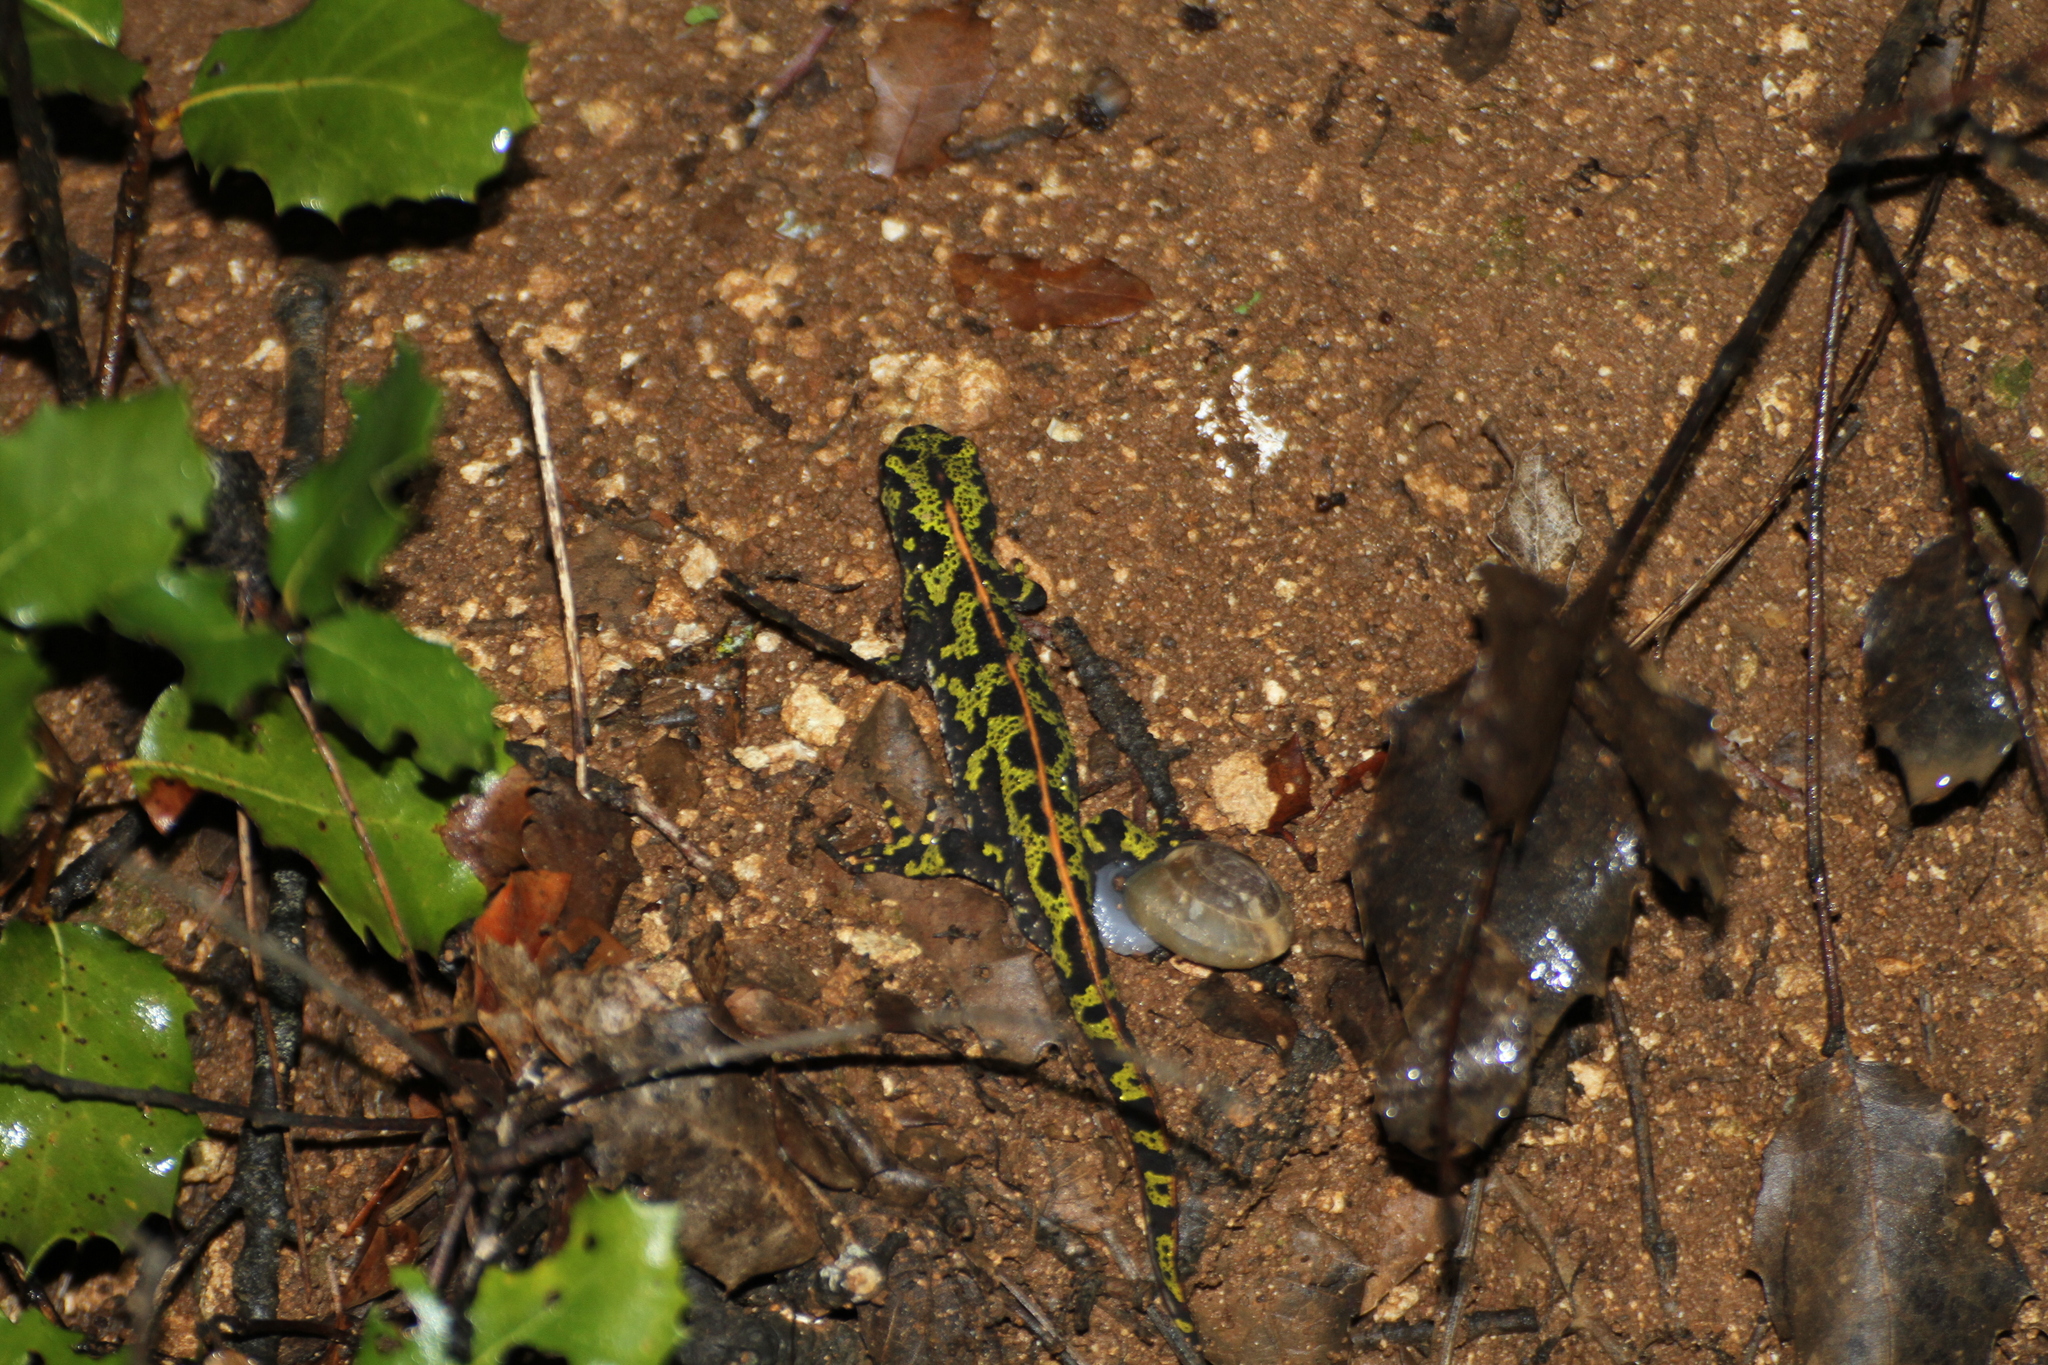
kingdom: Animalia
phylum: Chordata
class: Amphibia
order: Caudata
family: Salamandridae
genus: Triturus
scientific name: Triturus marmoratus
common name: Marbled newt
